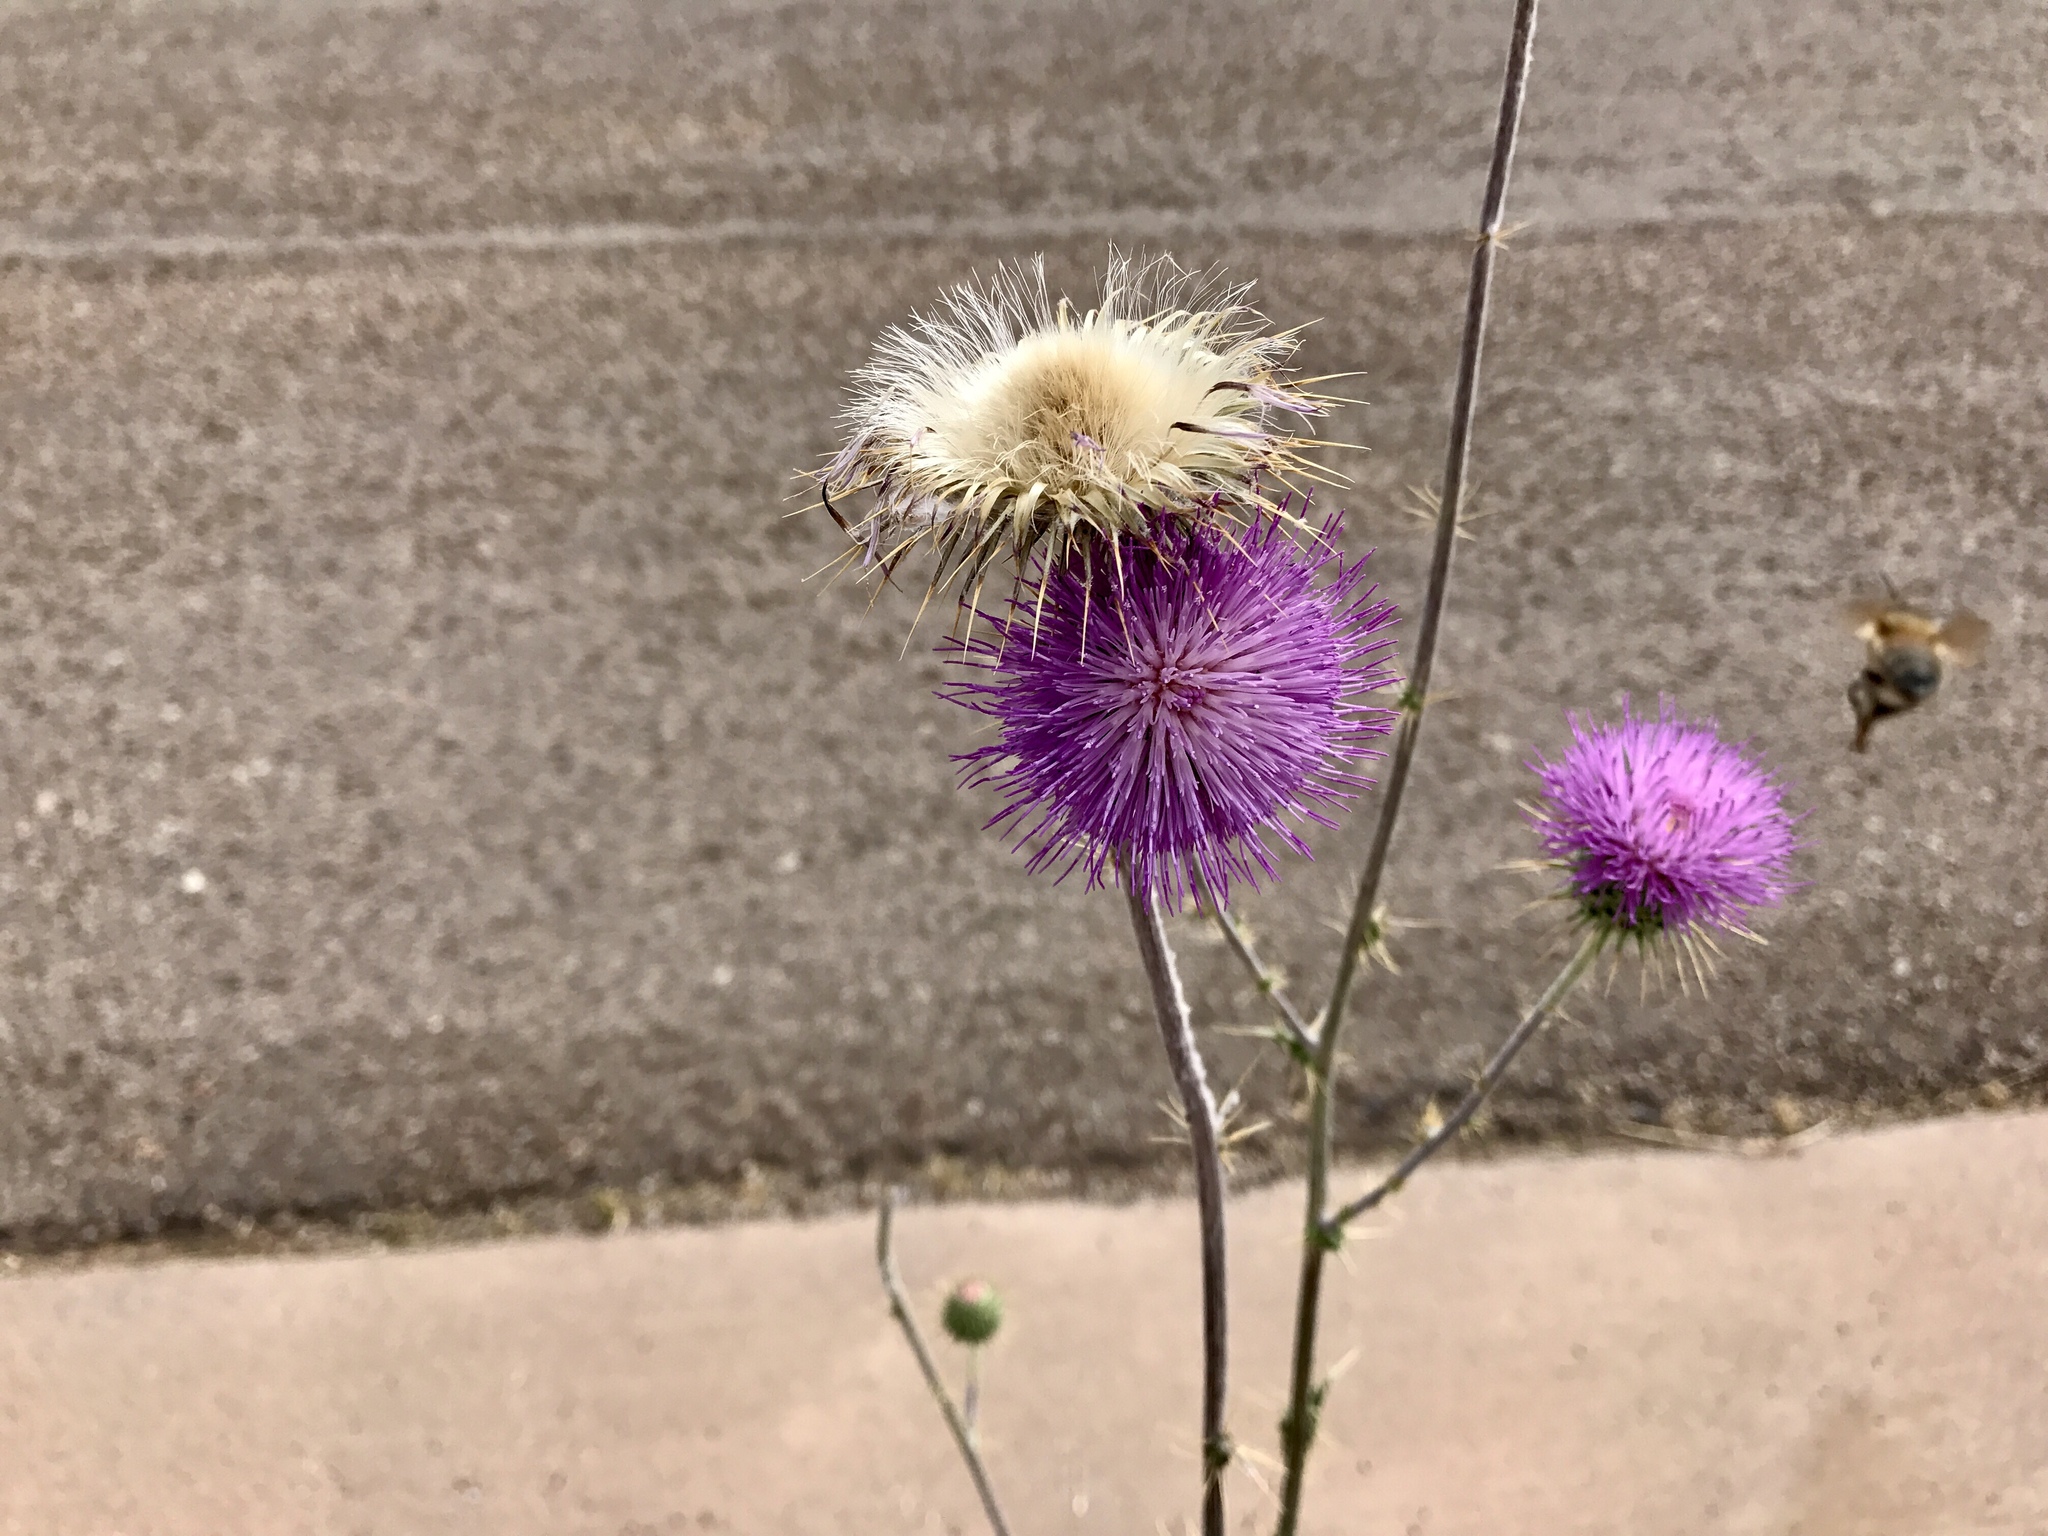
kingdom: Plantae
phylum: Tracheophyta
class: Magnoliopsida
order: Asterales
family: Asteraceae
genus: Cirsium
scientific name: Cirsium neomexicanum
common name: New mexico thistle
